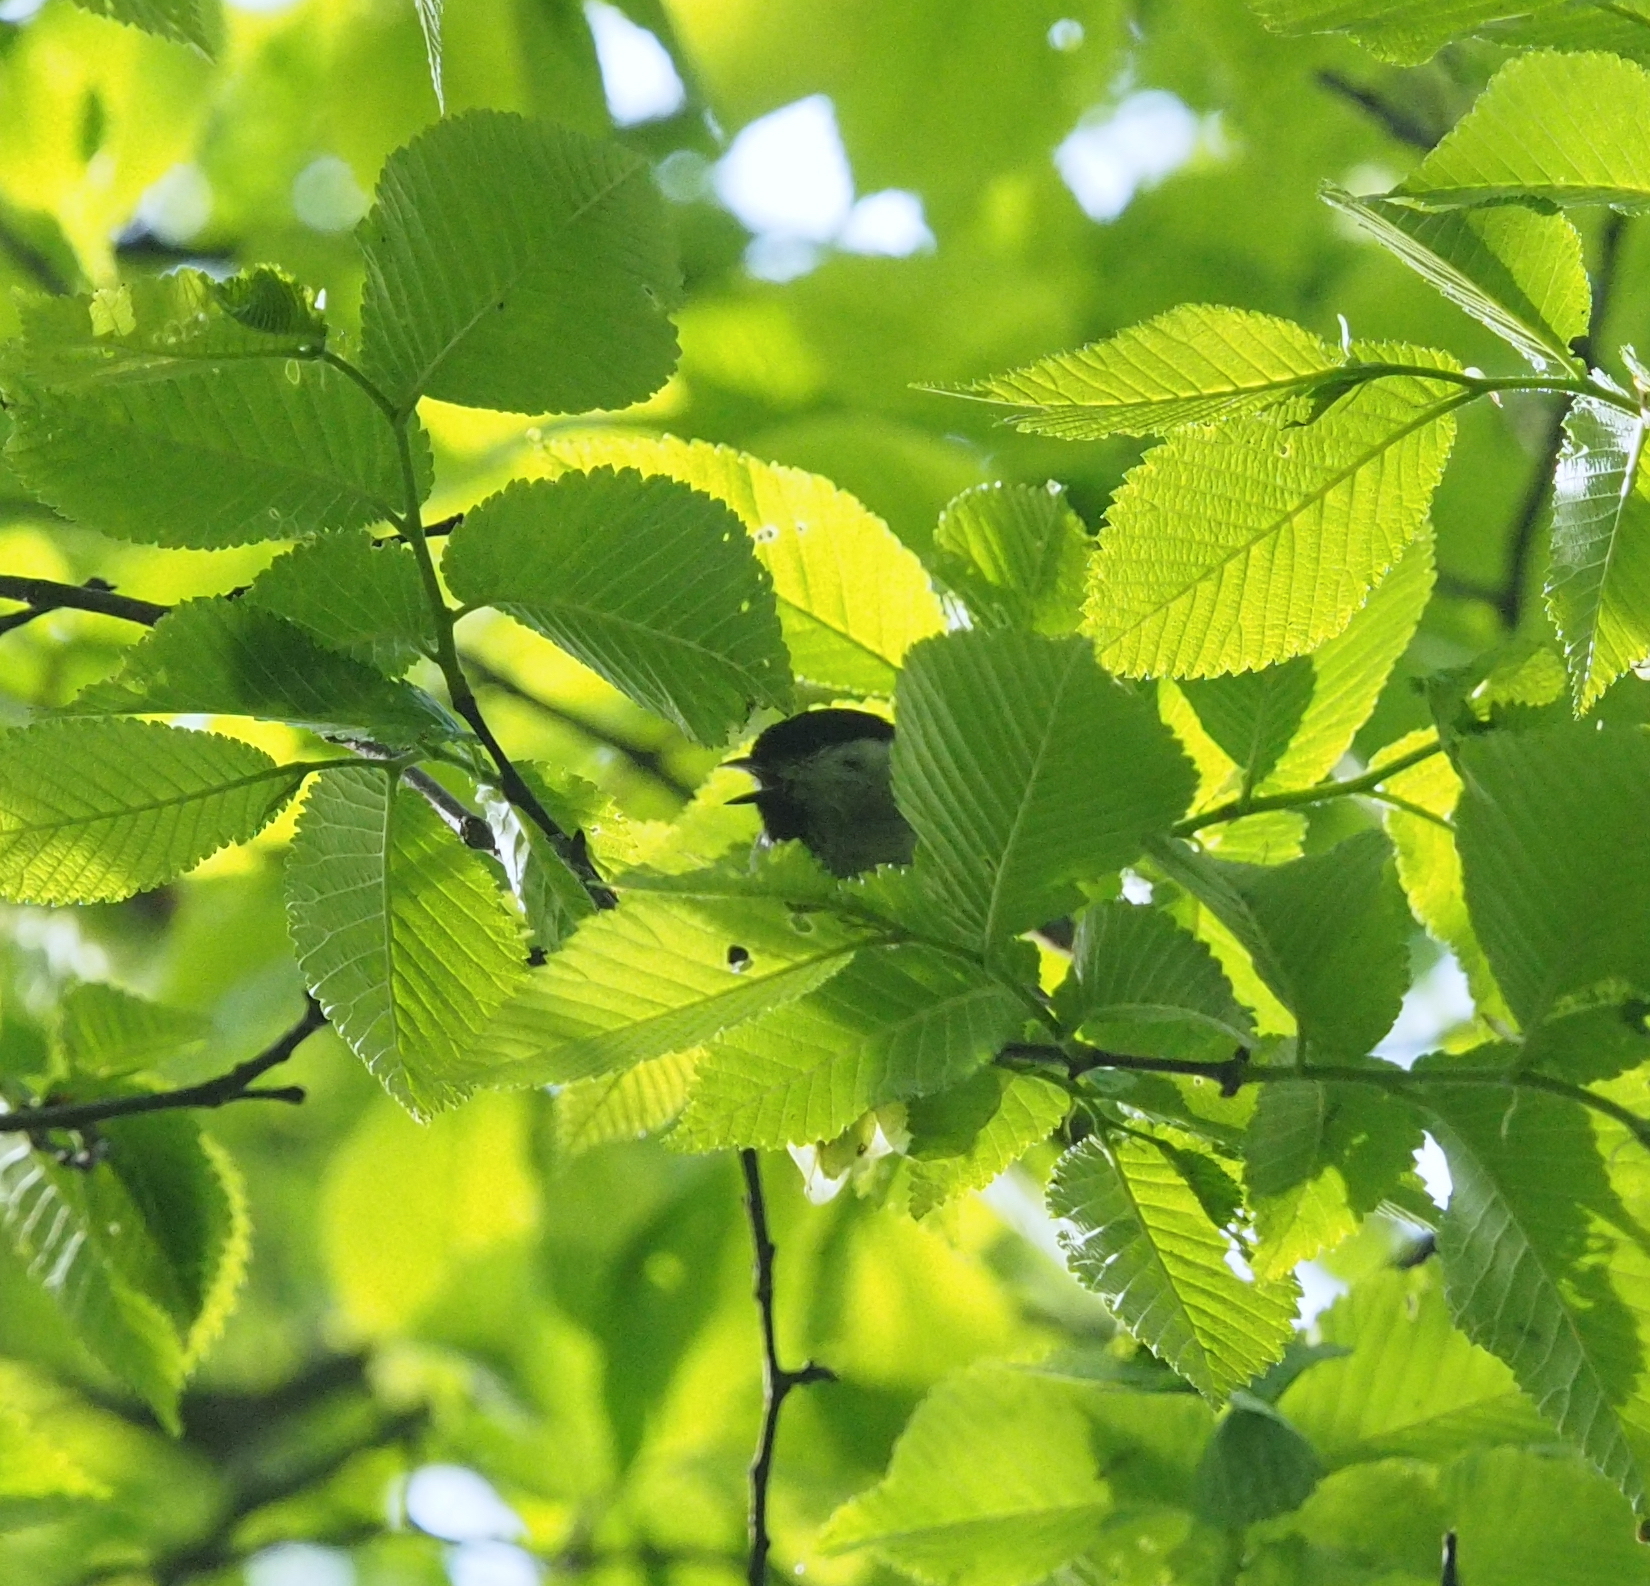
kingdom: Animalia
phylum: Chordata
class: Aves
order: Passeriformes
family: Paridae
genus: Poecile
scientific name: Poecile palustris
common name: Marsh tit
